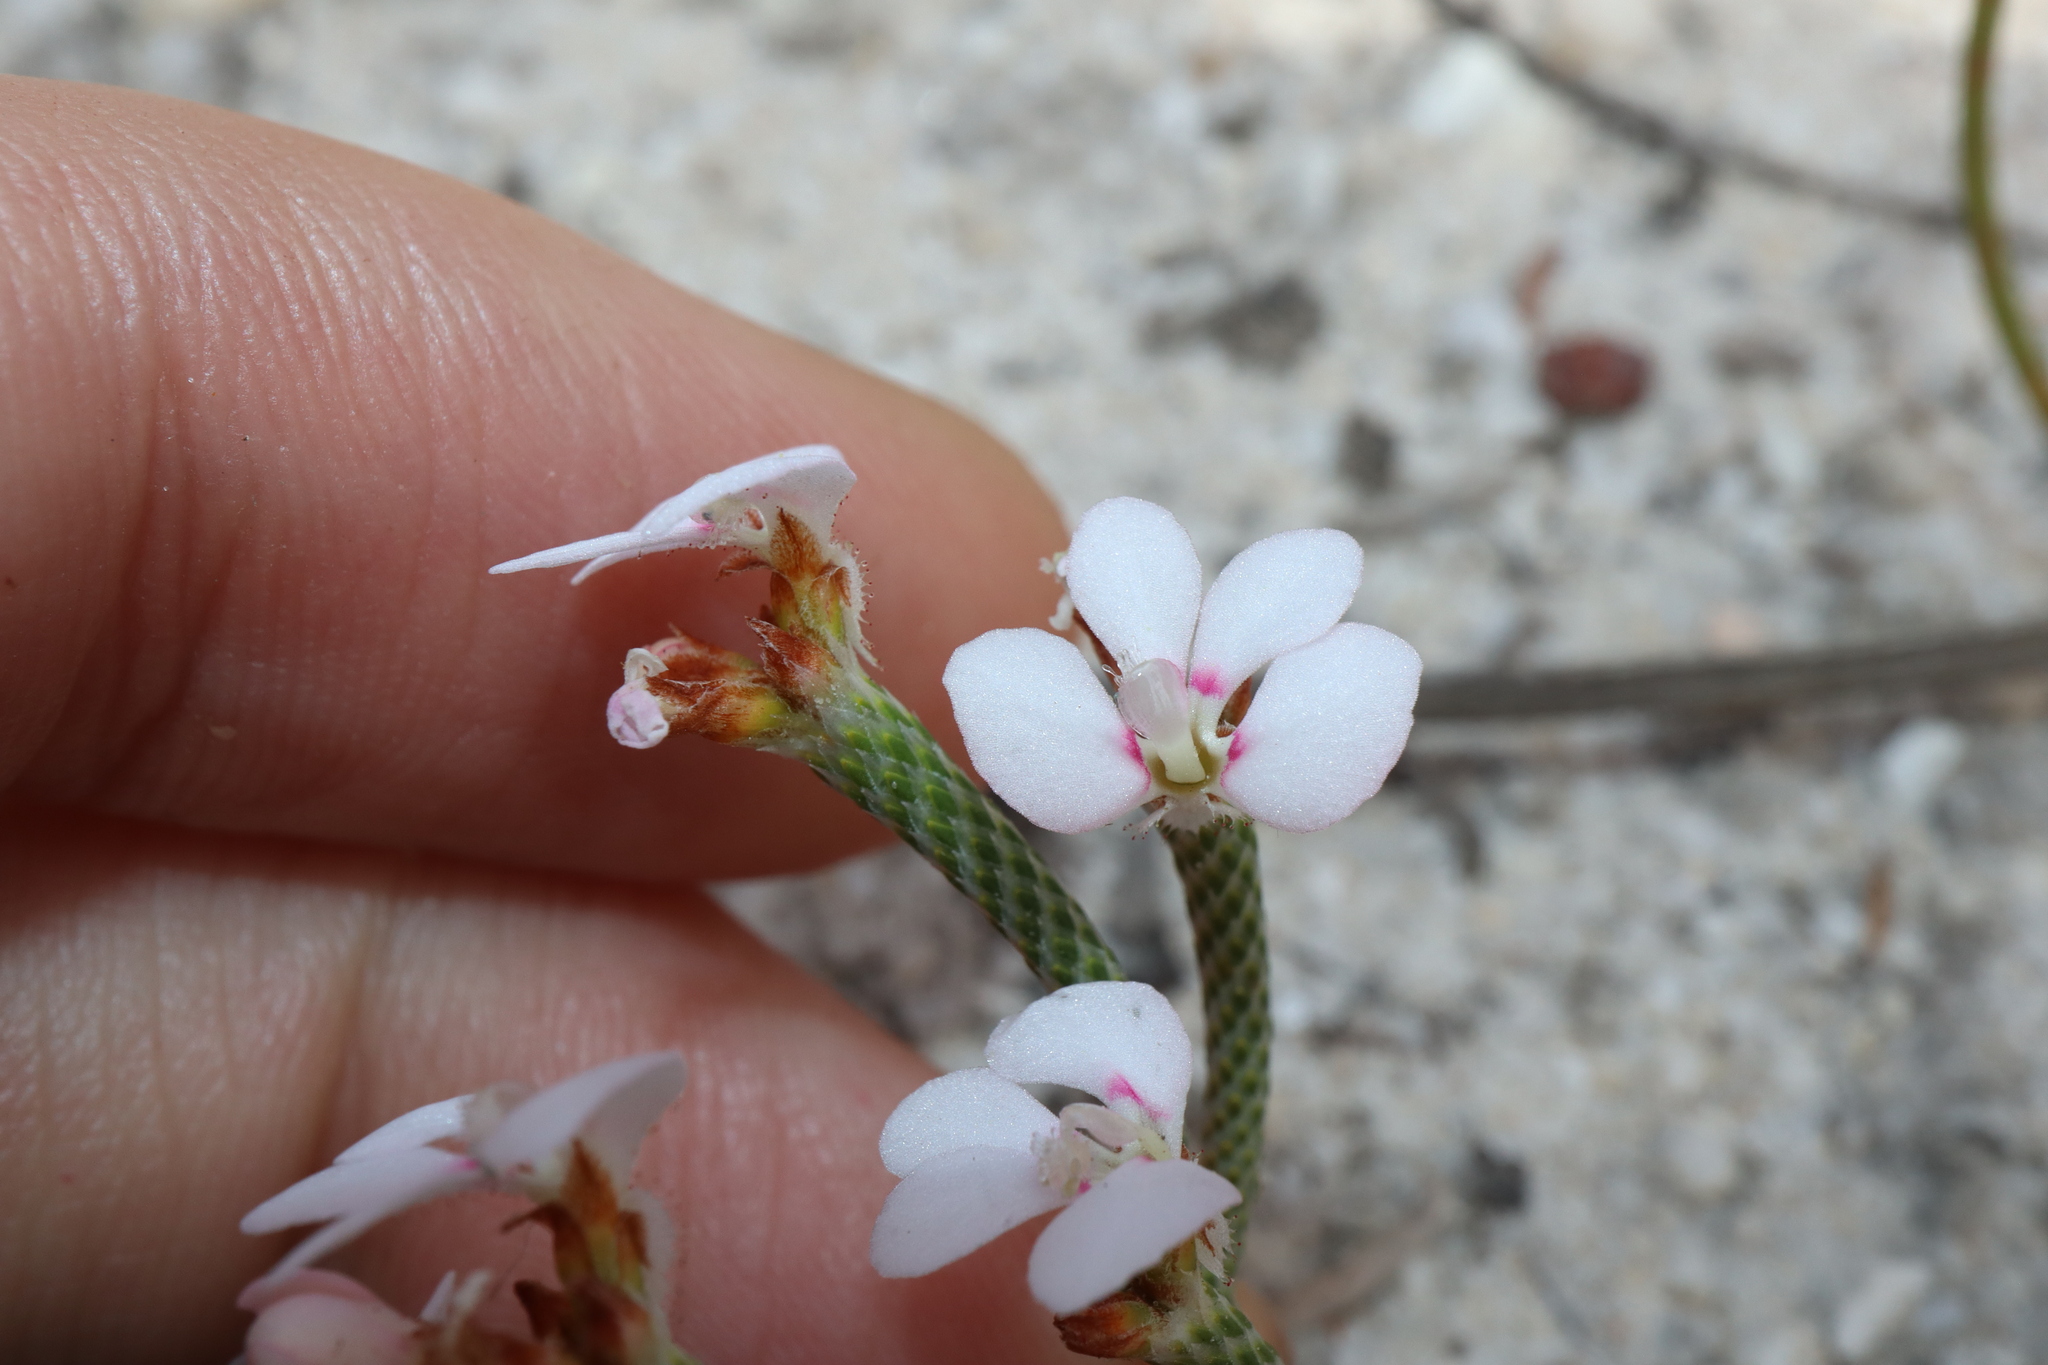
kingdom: Plantae
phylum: Tracheophyta
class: Magnoliopsida
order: Asterales
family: Stylidiaceae
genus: Stylidium
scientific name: Stylidium preissii
